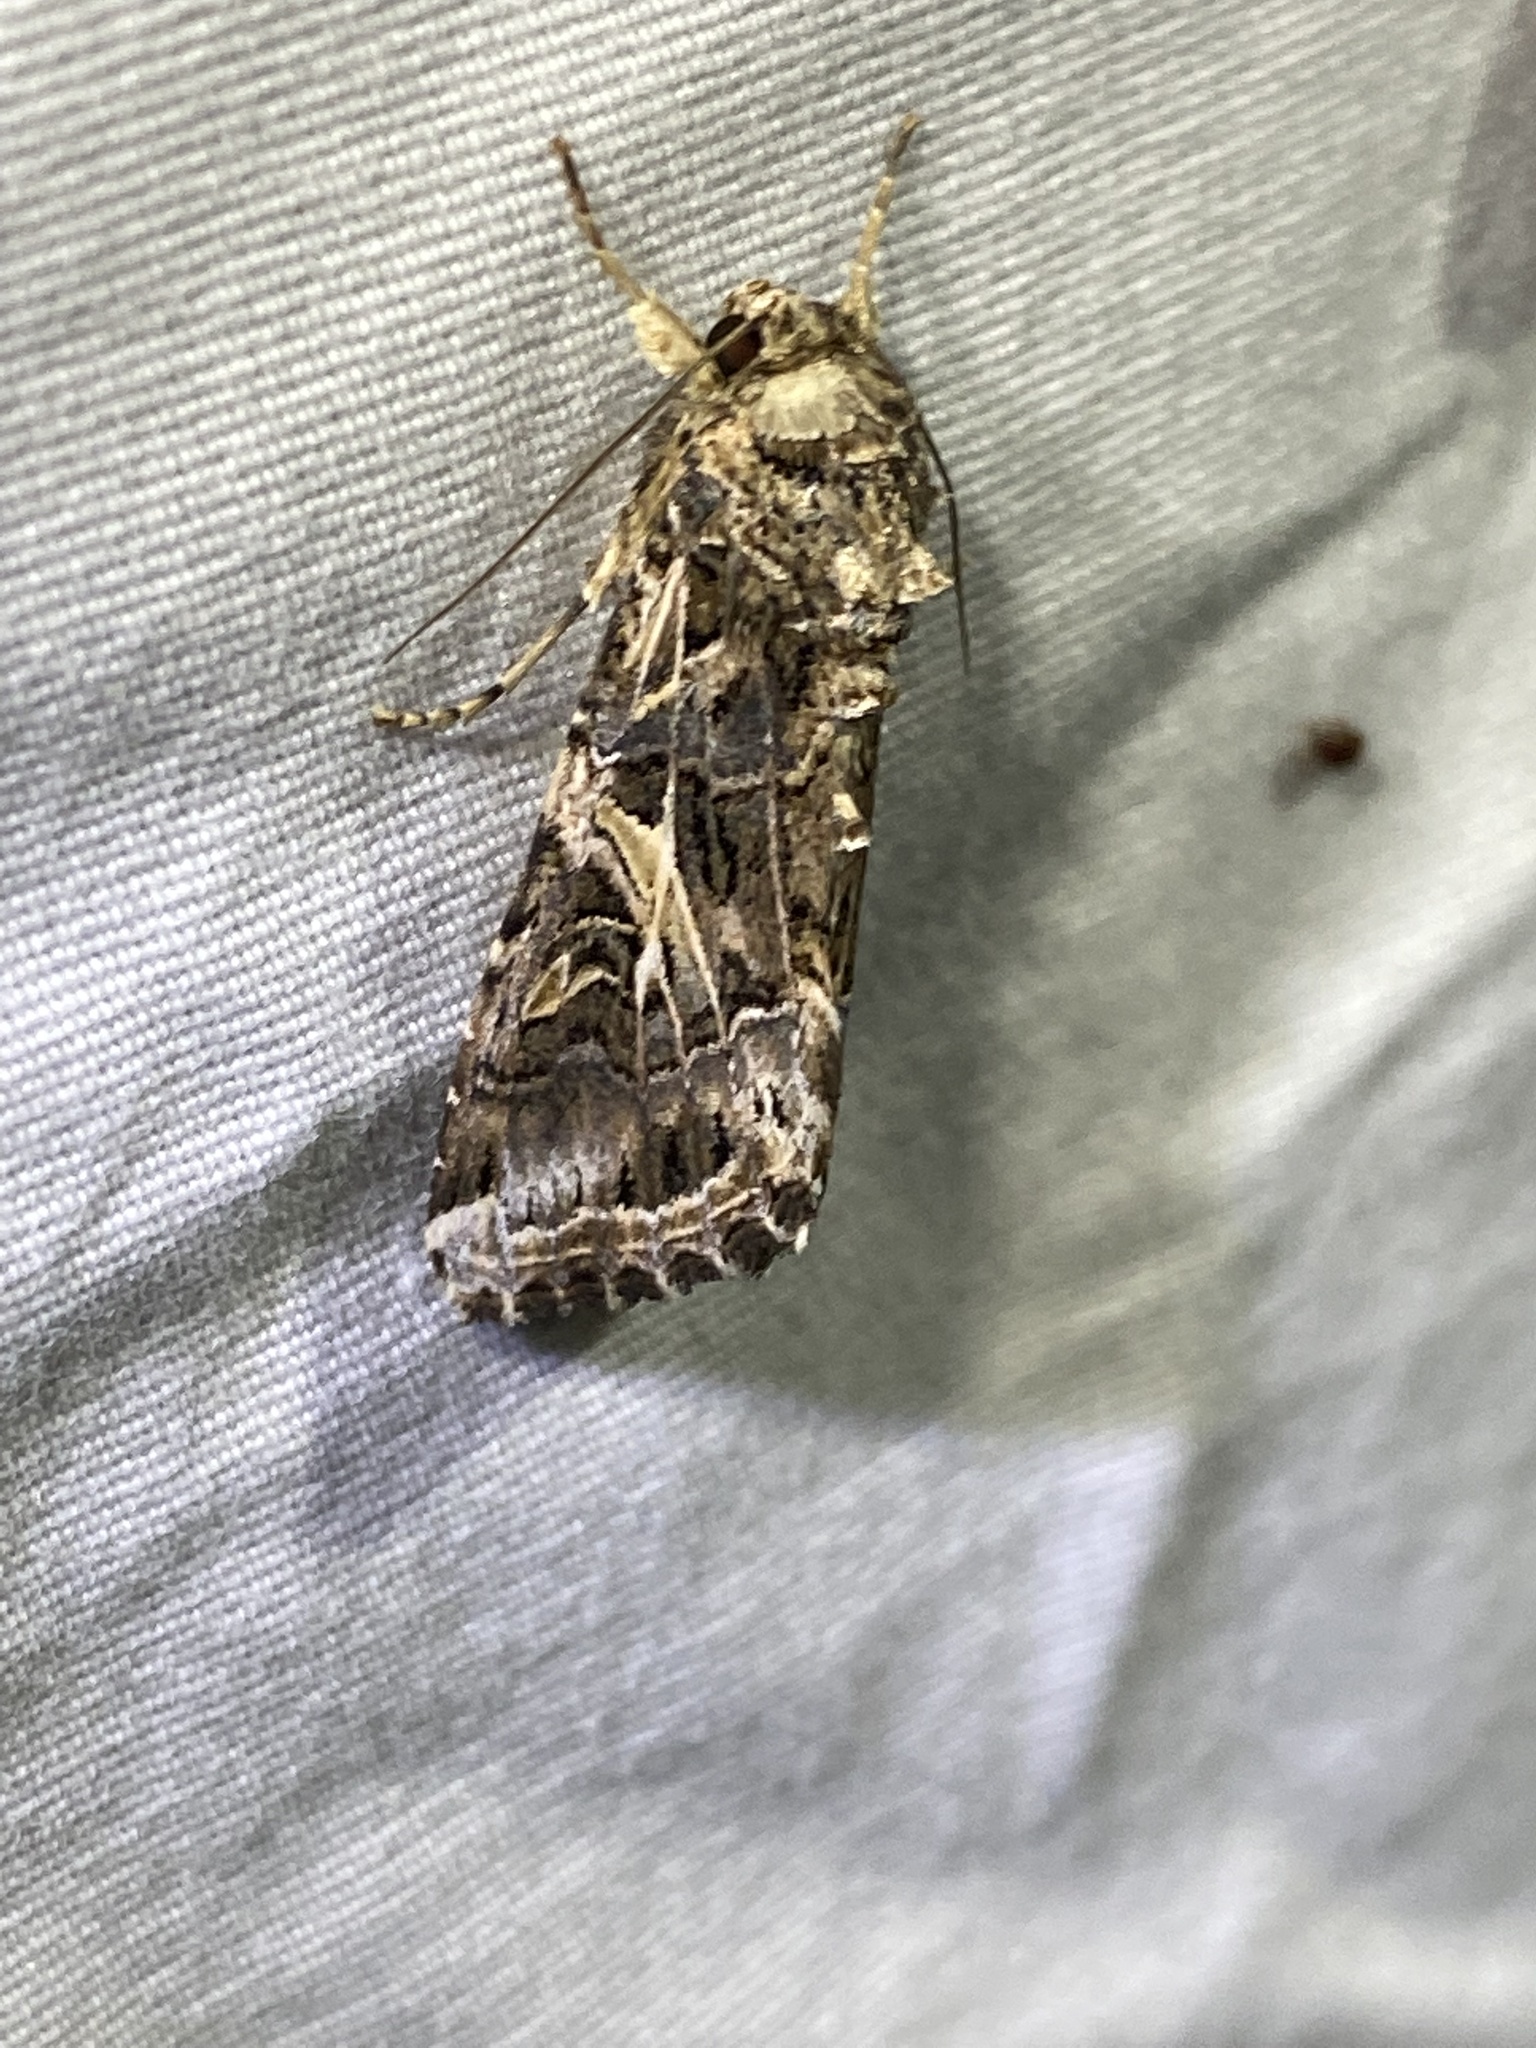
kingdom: Animalia
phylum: Arthropoda
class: Insecta
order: Lepidoptera
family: Noctuidae
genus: Spodoptera
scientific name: Spodoptera ornithogalli
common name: Yellow-striped armyworm
